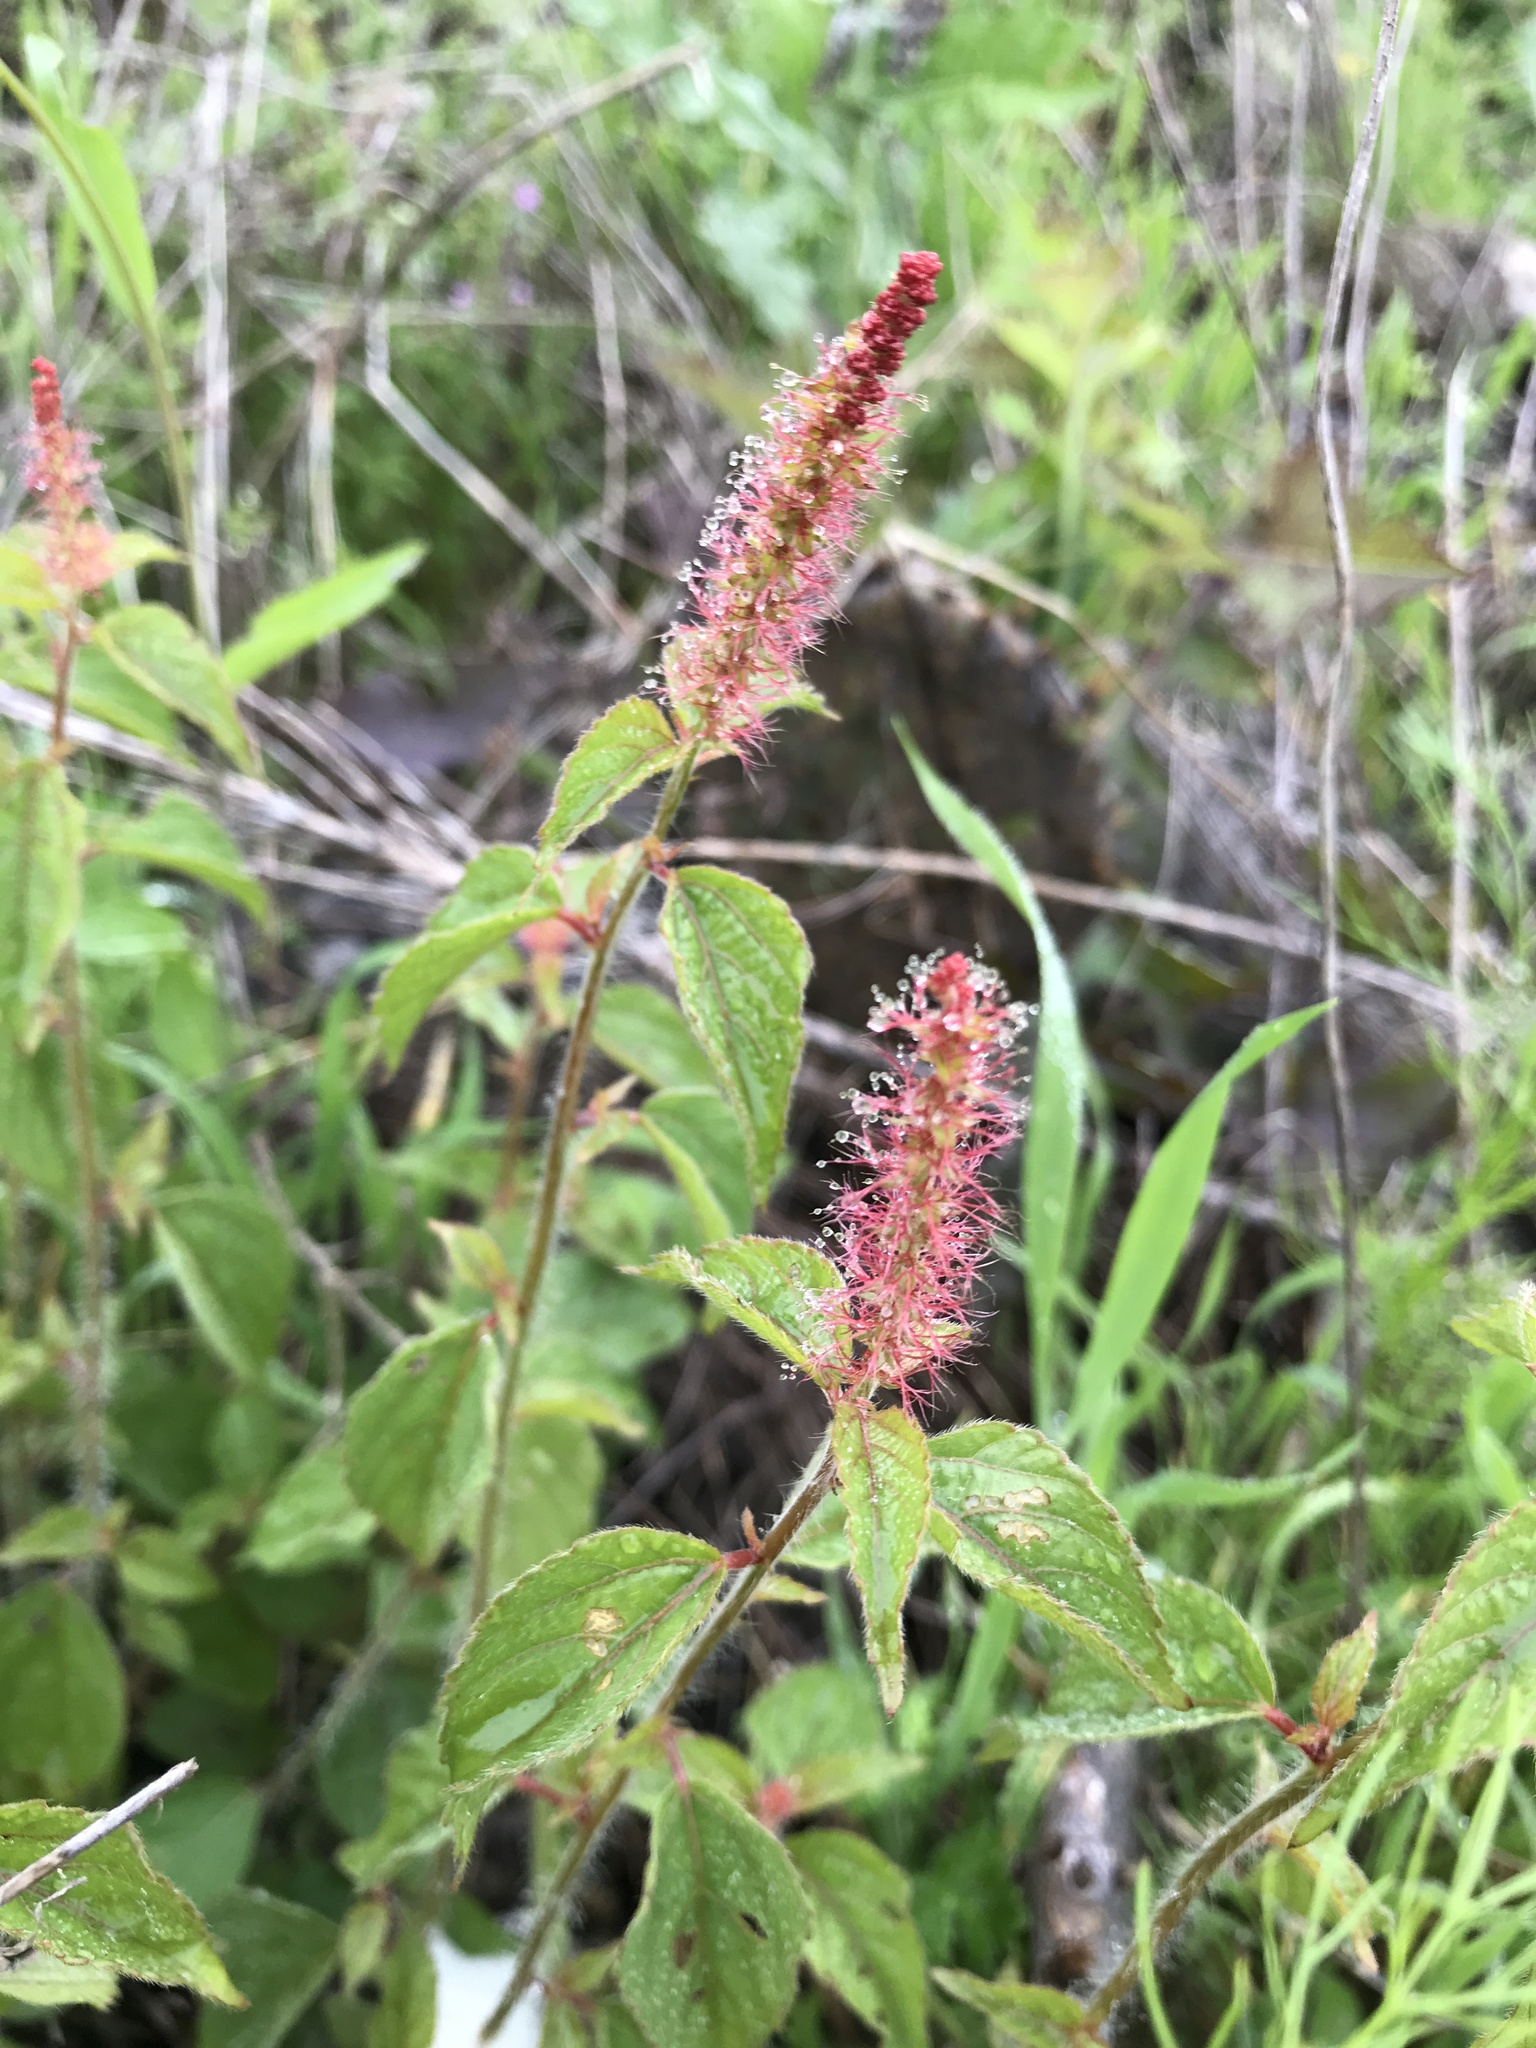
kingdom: Plantae
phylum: Tracheophyta
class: Magnoliopsida
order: Malpighiales
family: Euphorbiaceae
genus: Acalypha
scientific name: Acalypha phleoides
